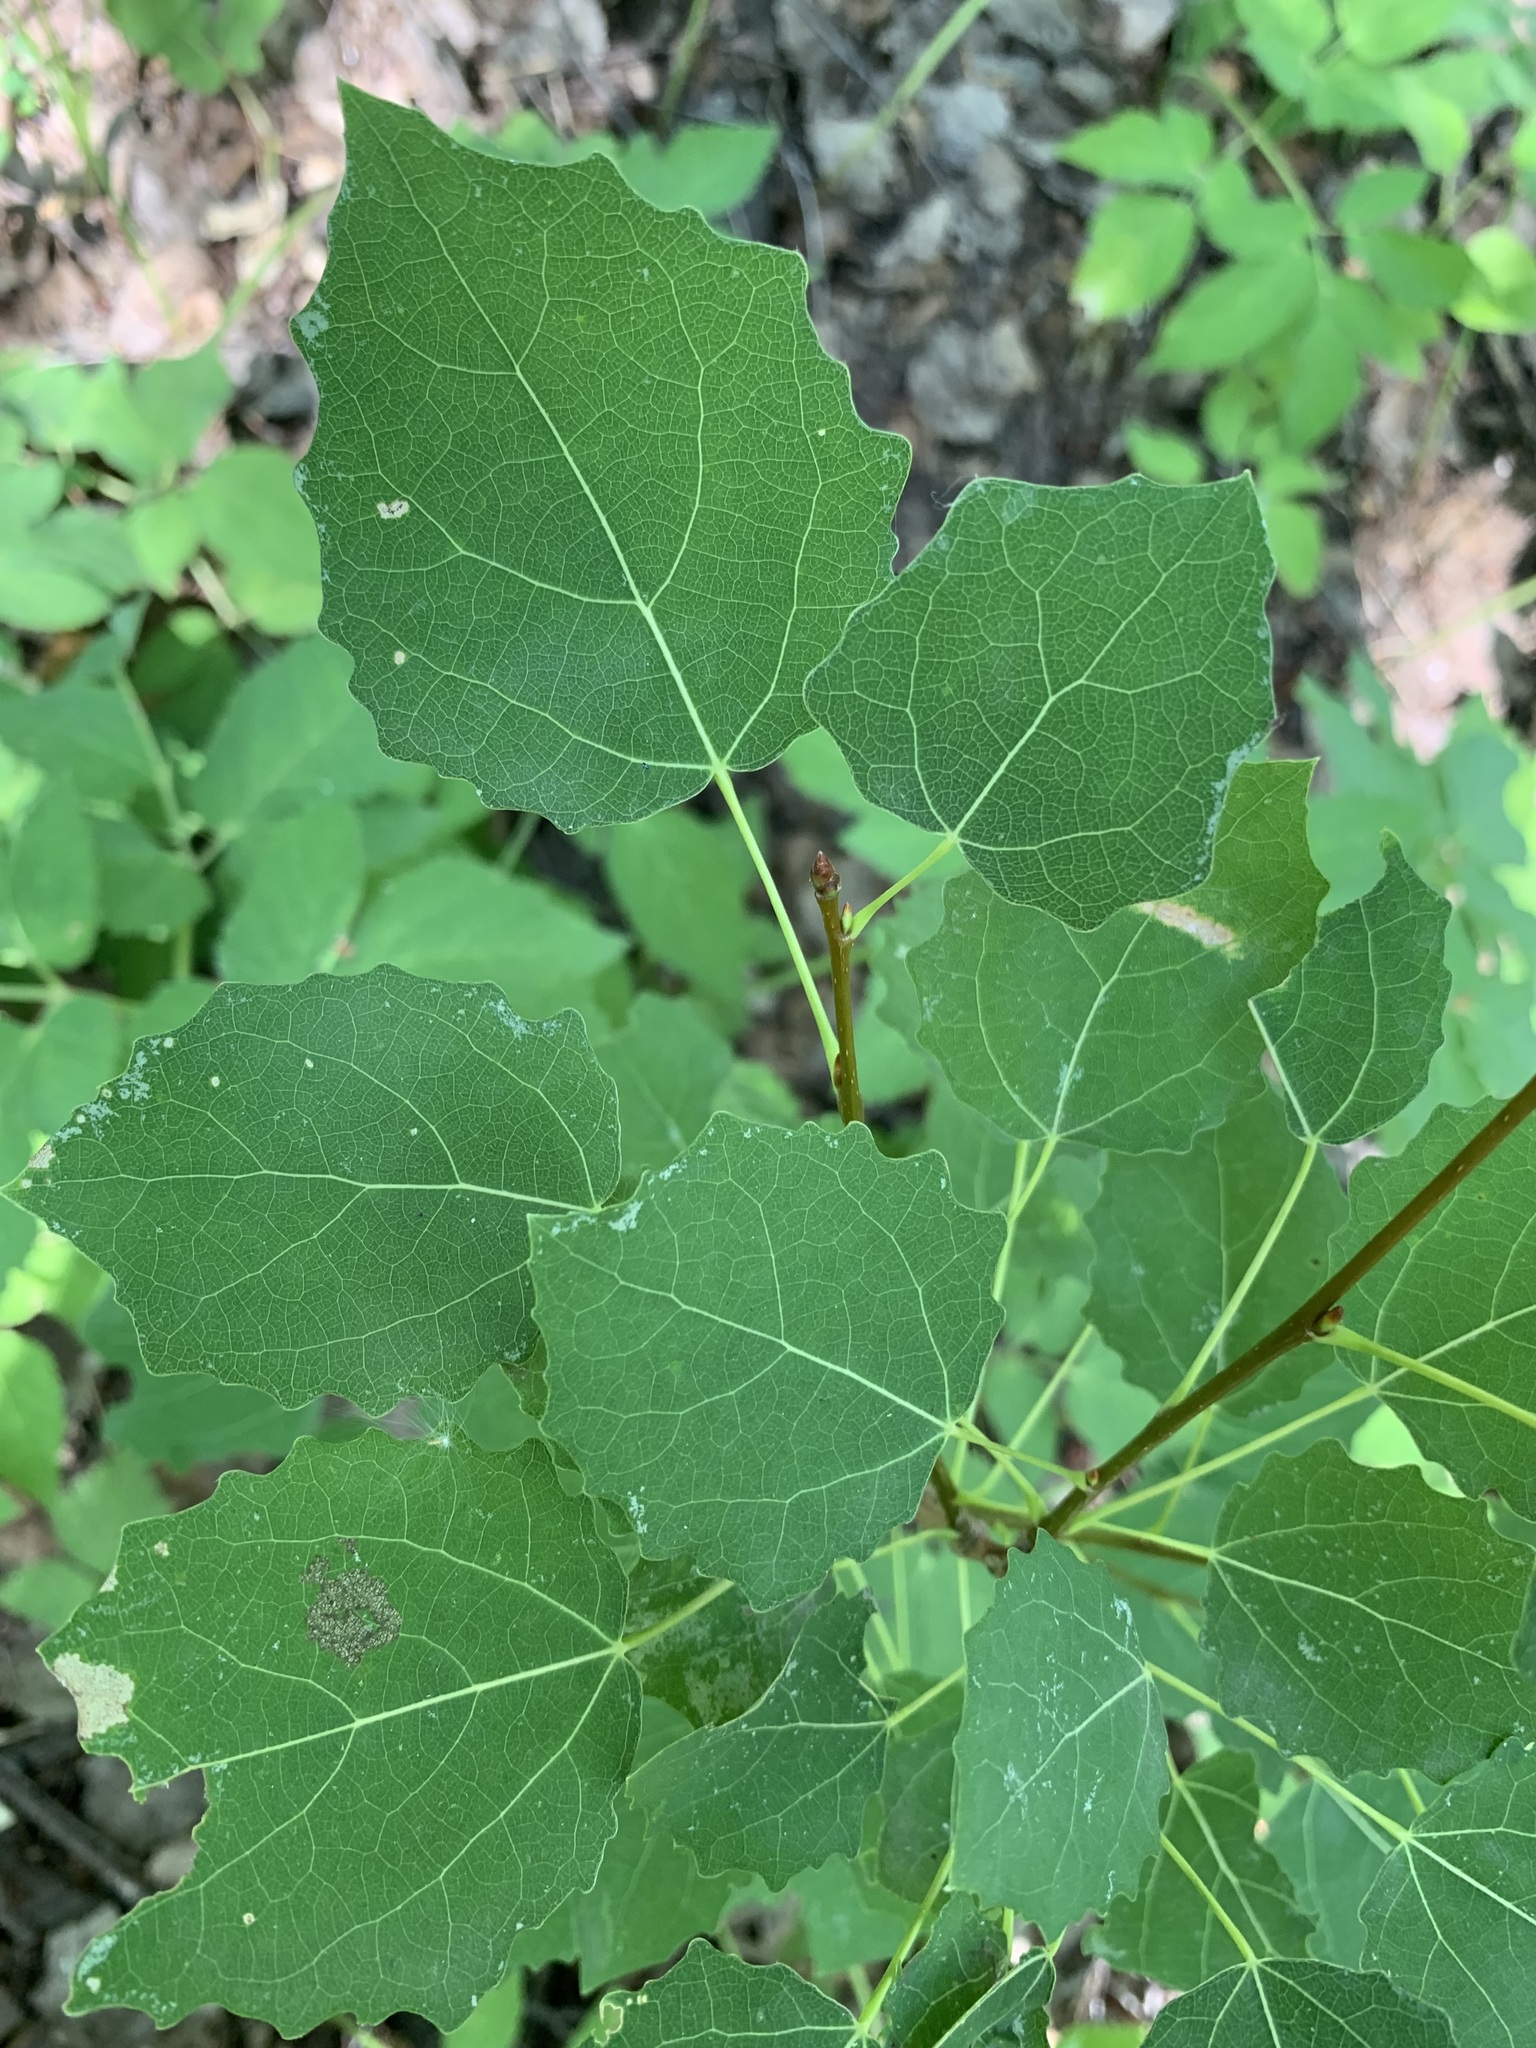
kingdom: Plantae
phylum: Tracheophyta
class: Magnoliopsida
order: Malpighiales
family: Salicaceae
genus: Populus
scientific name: Populus tremula
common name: European aspen
